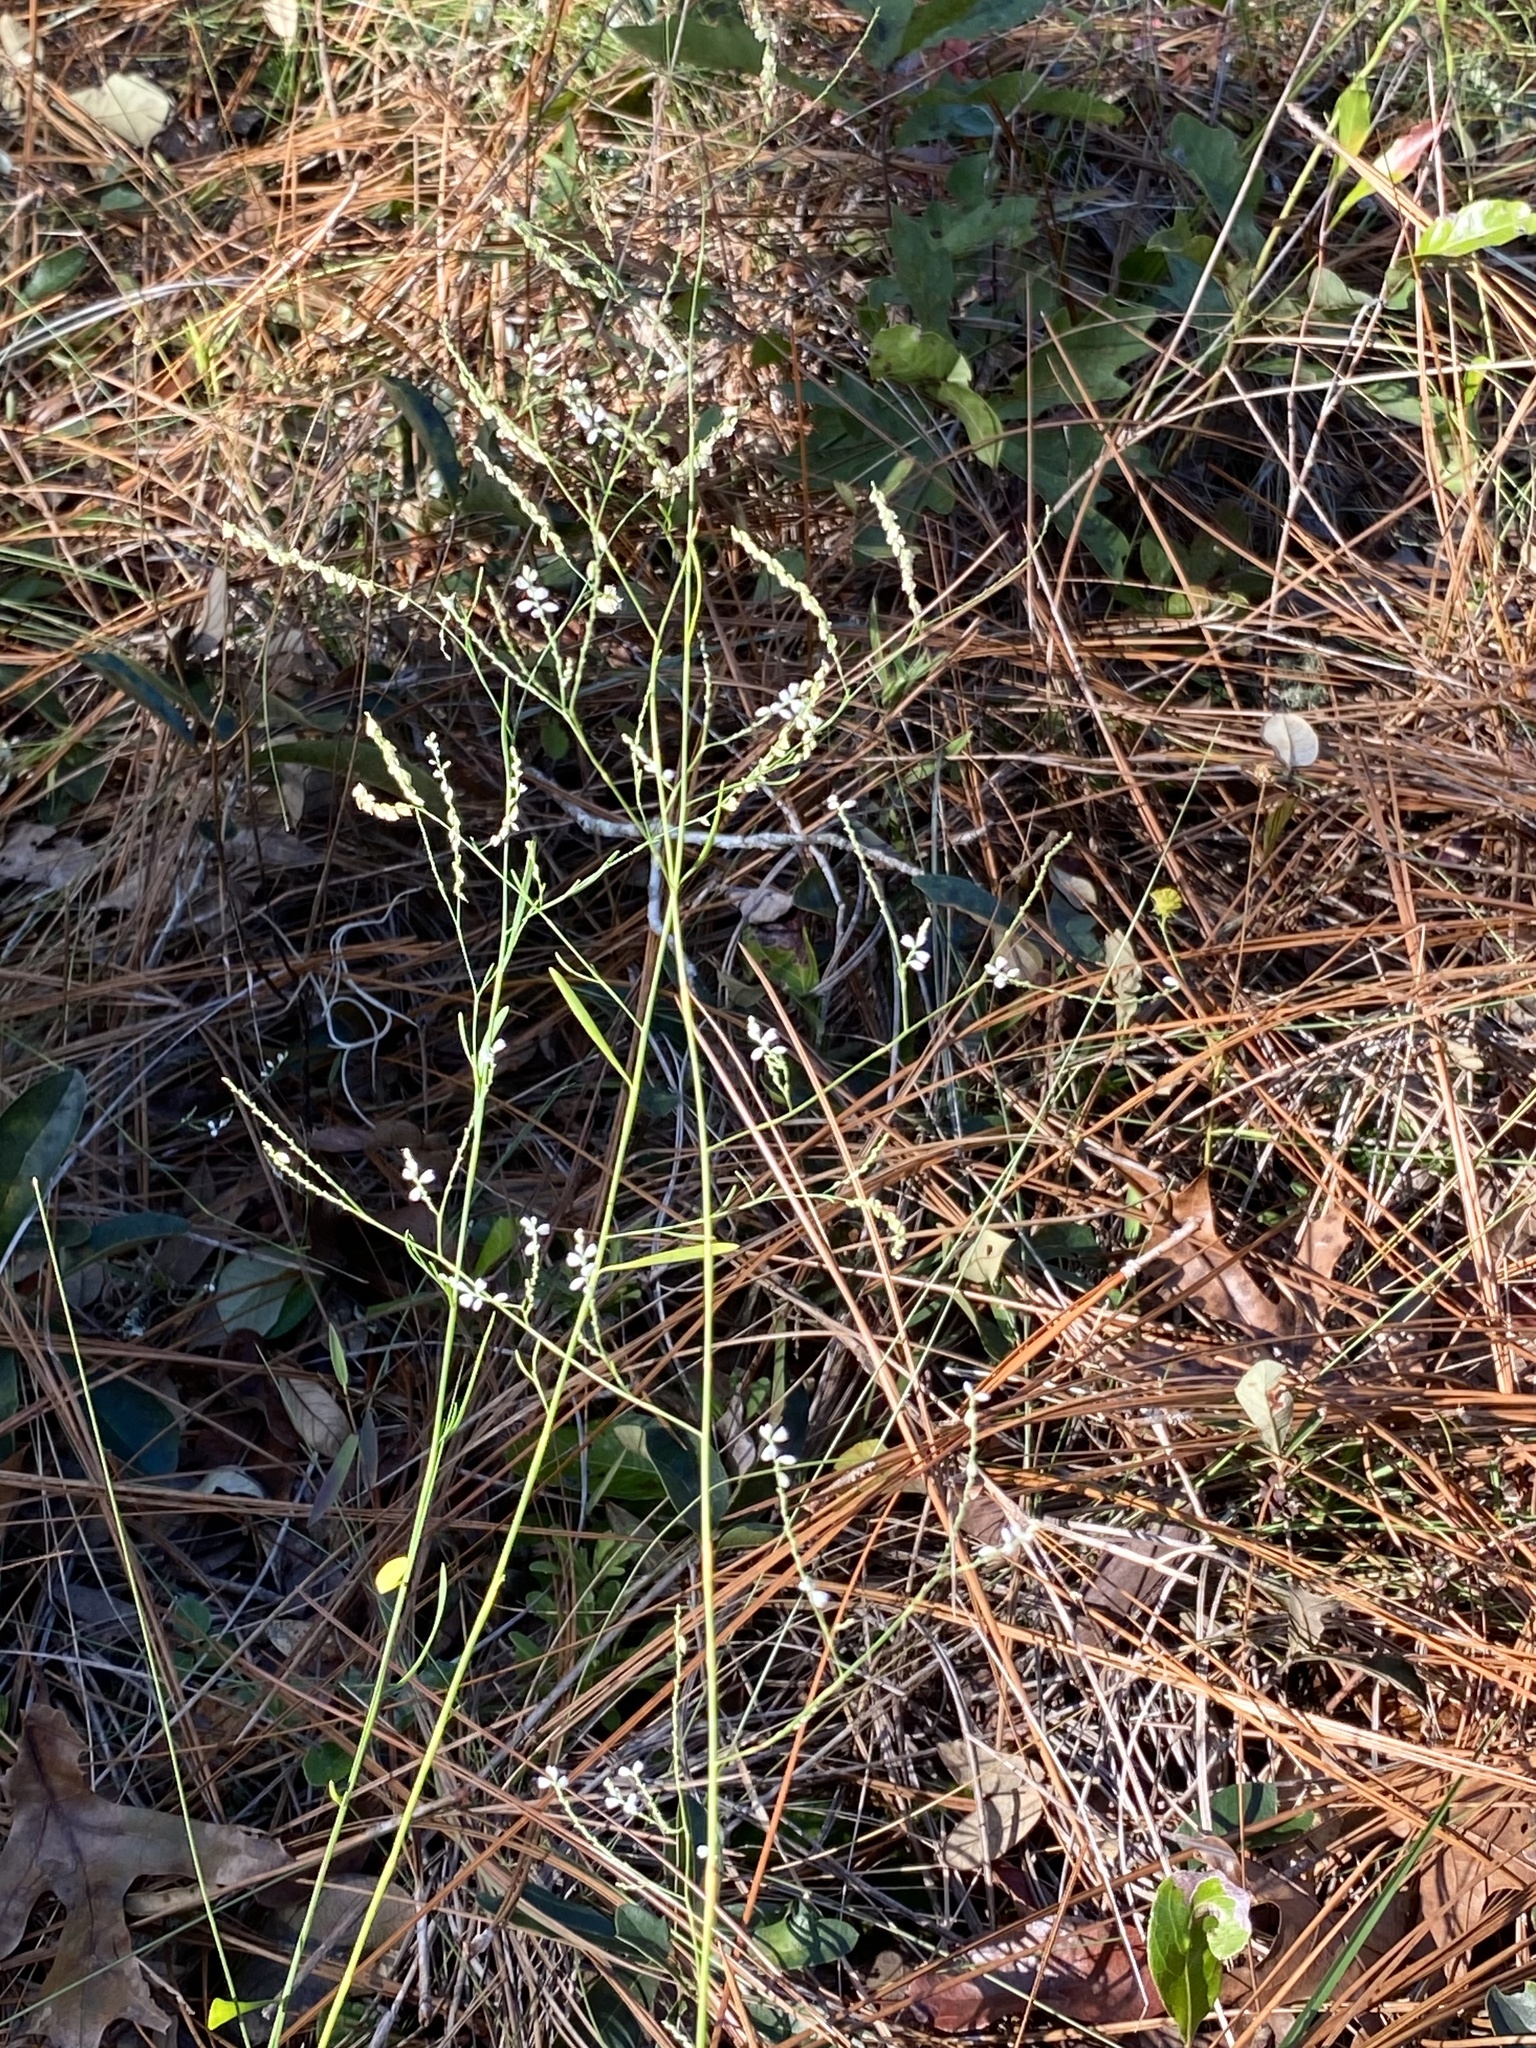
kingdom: Plantae
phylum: Tracheophyta
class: Magnoliopsida
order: Caryophyllales
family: Polygonaceae
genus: Polygonella
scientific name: Polygonella gracilis
